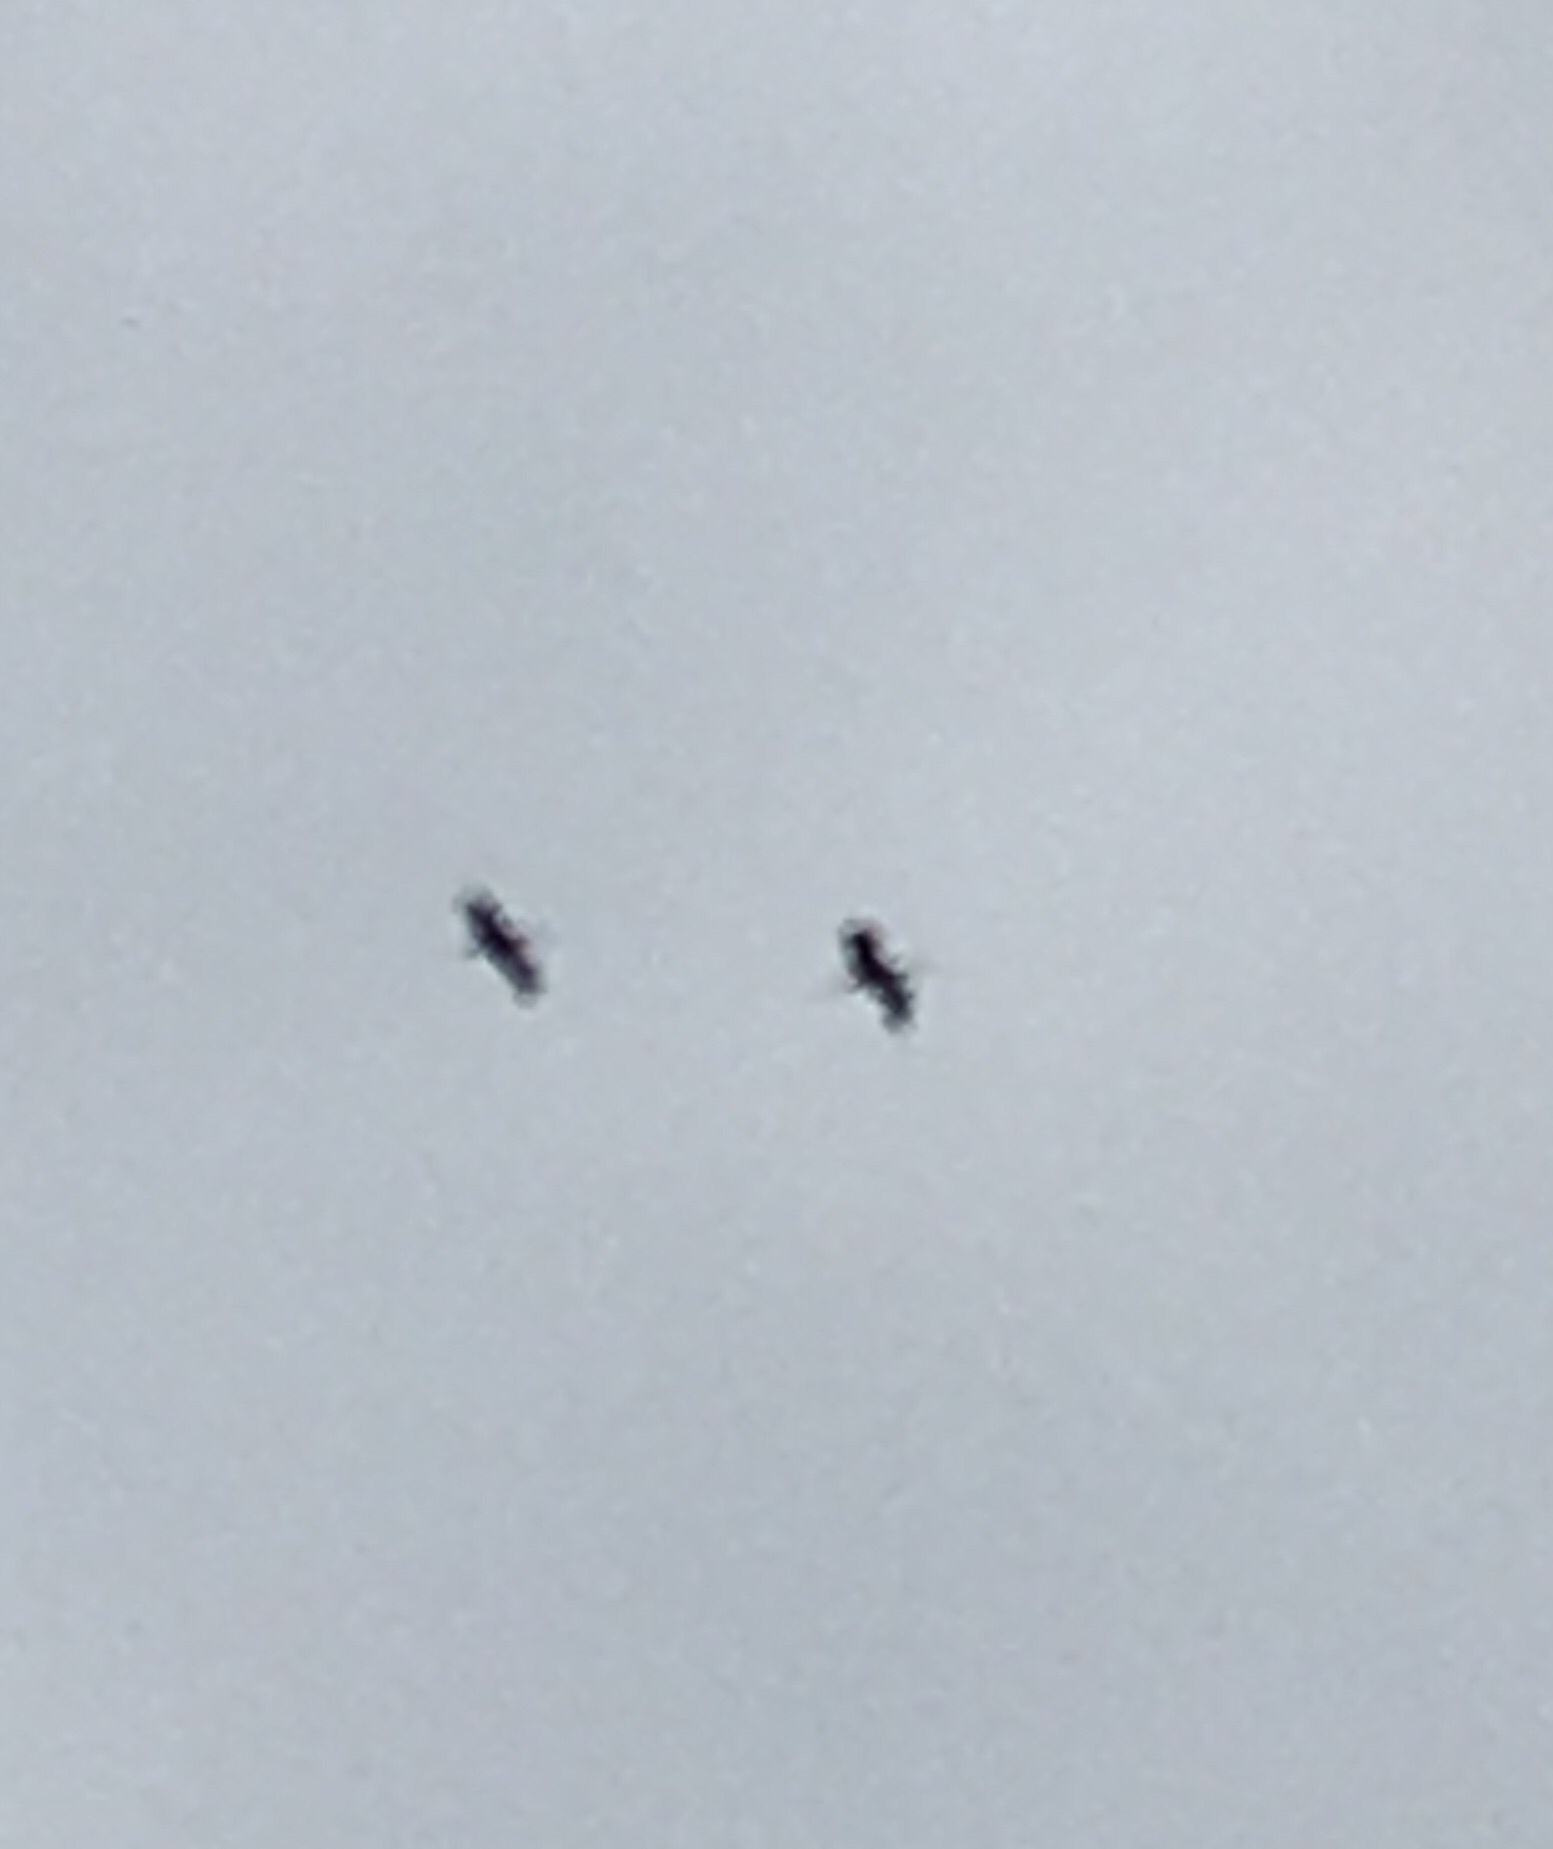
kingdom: Animalia
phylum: Chordata
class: Aves
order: Gruiformes
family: Gruidae
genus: Grus
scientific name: Grus canadensis
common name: Sandhill crane
